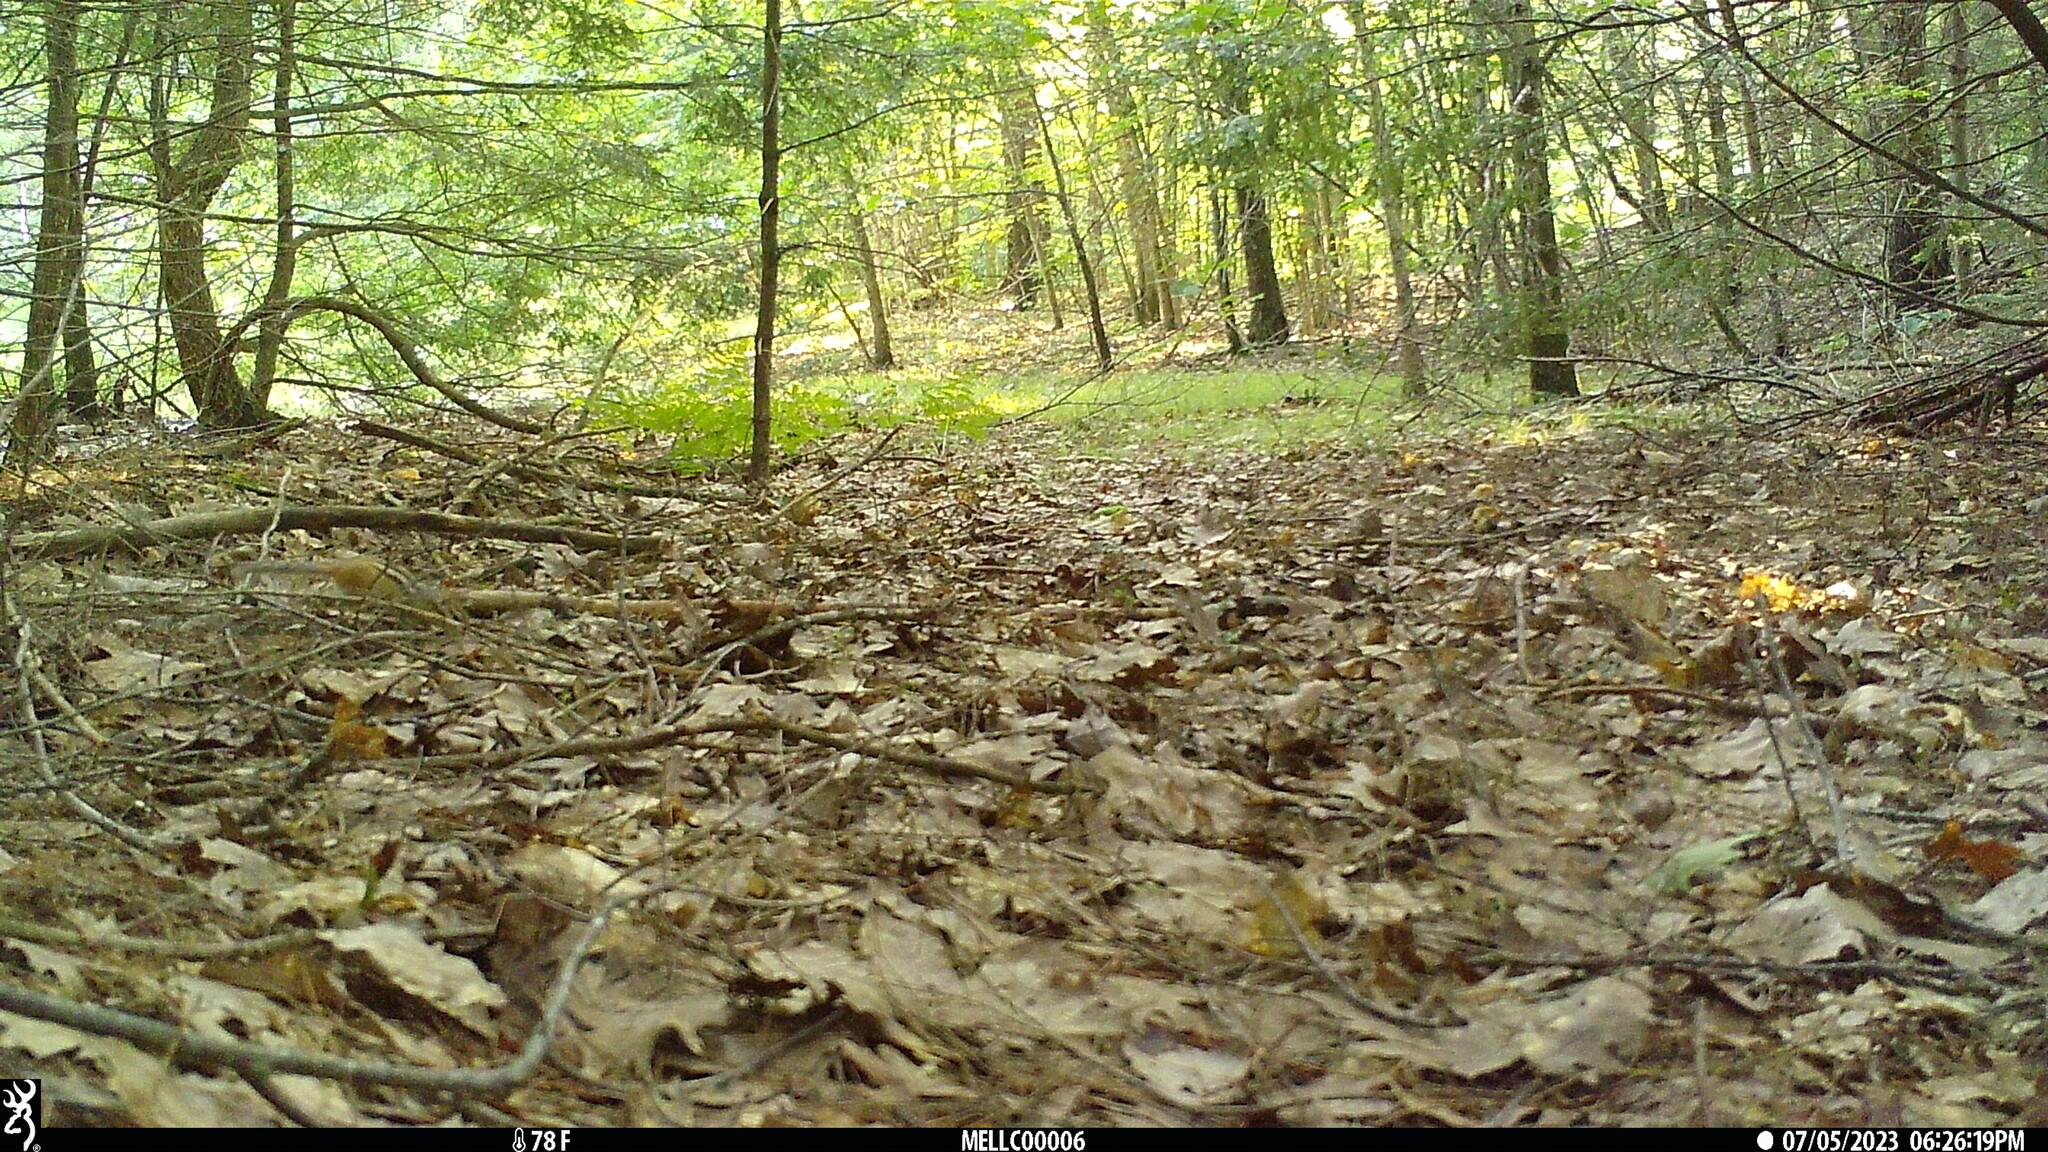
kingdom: Animalia
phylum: Chordata
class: Mammalia
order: Rodentia
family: Sciuridae
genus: Tamias
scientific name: Tamias striatus
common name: Eastern chipmunk
